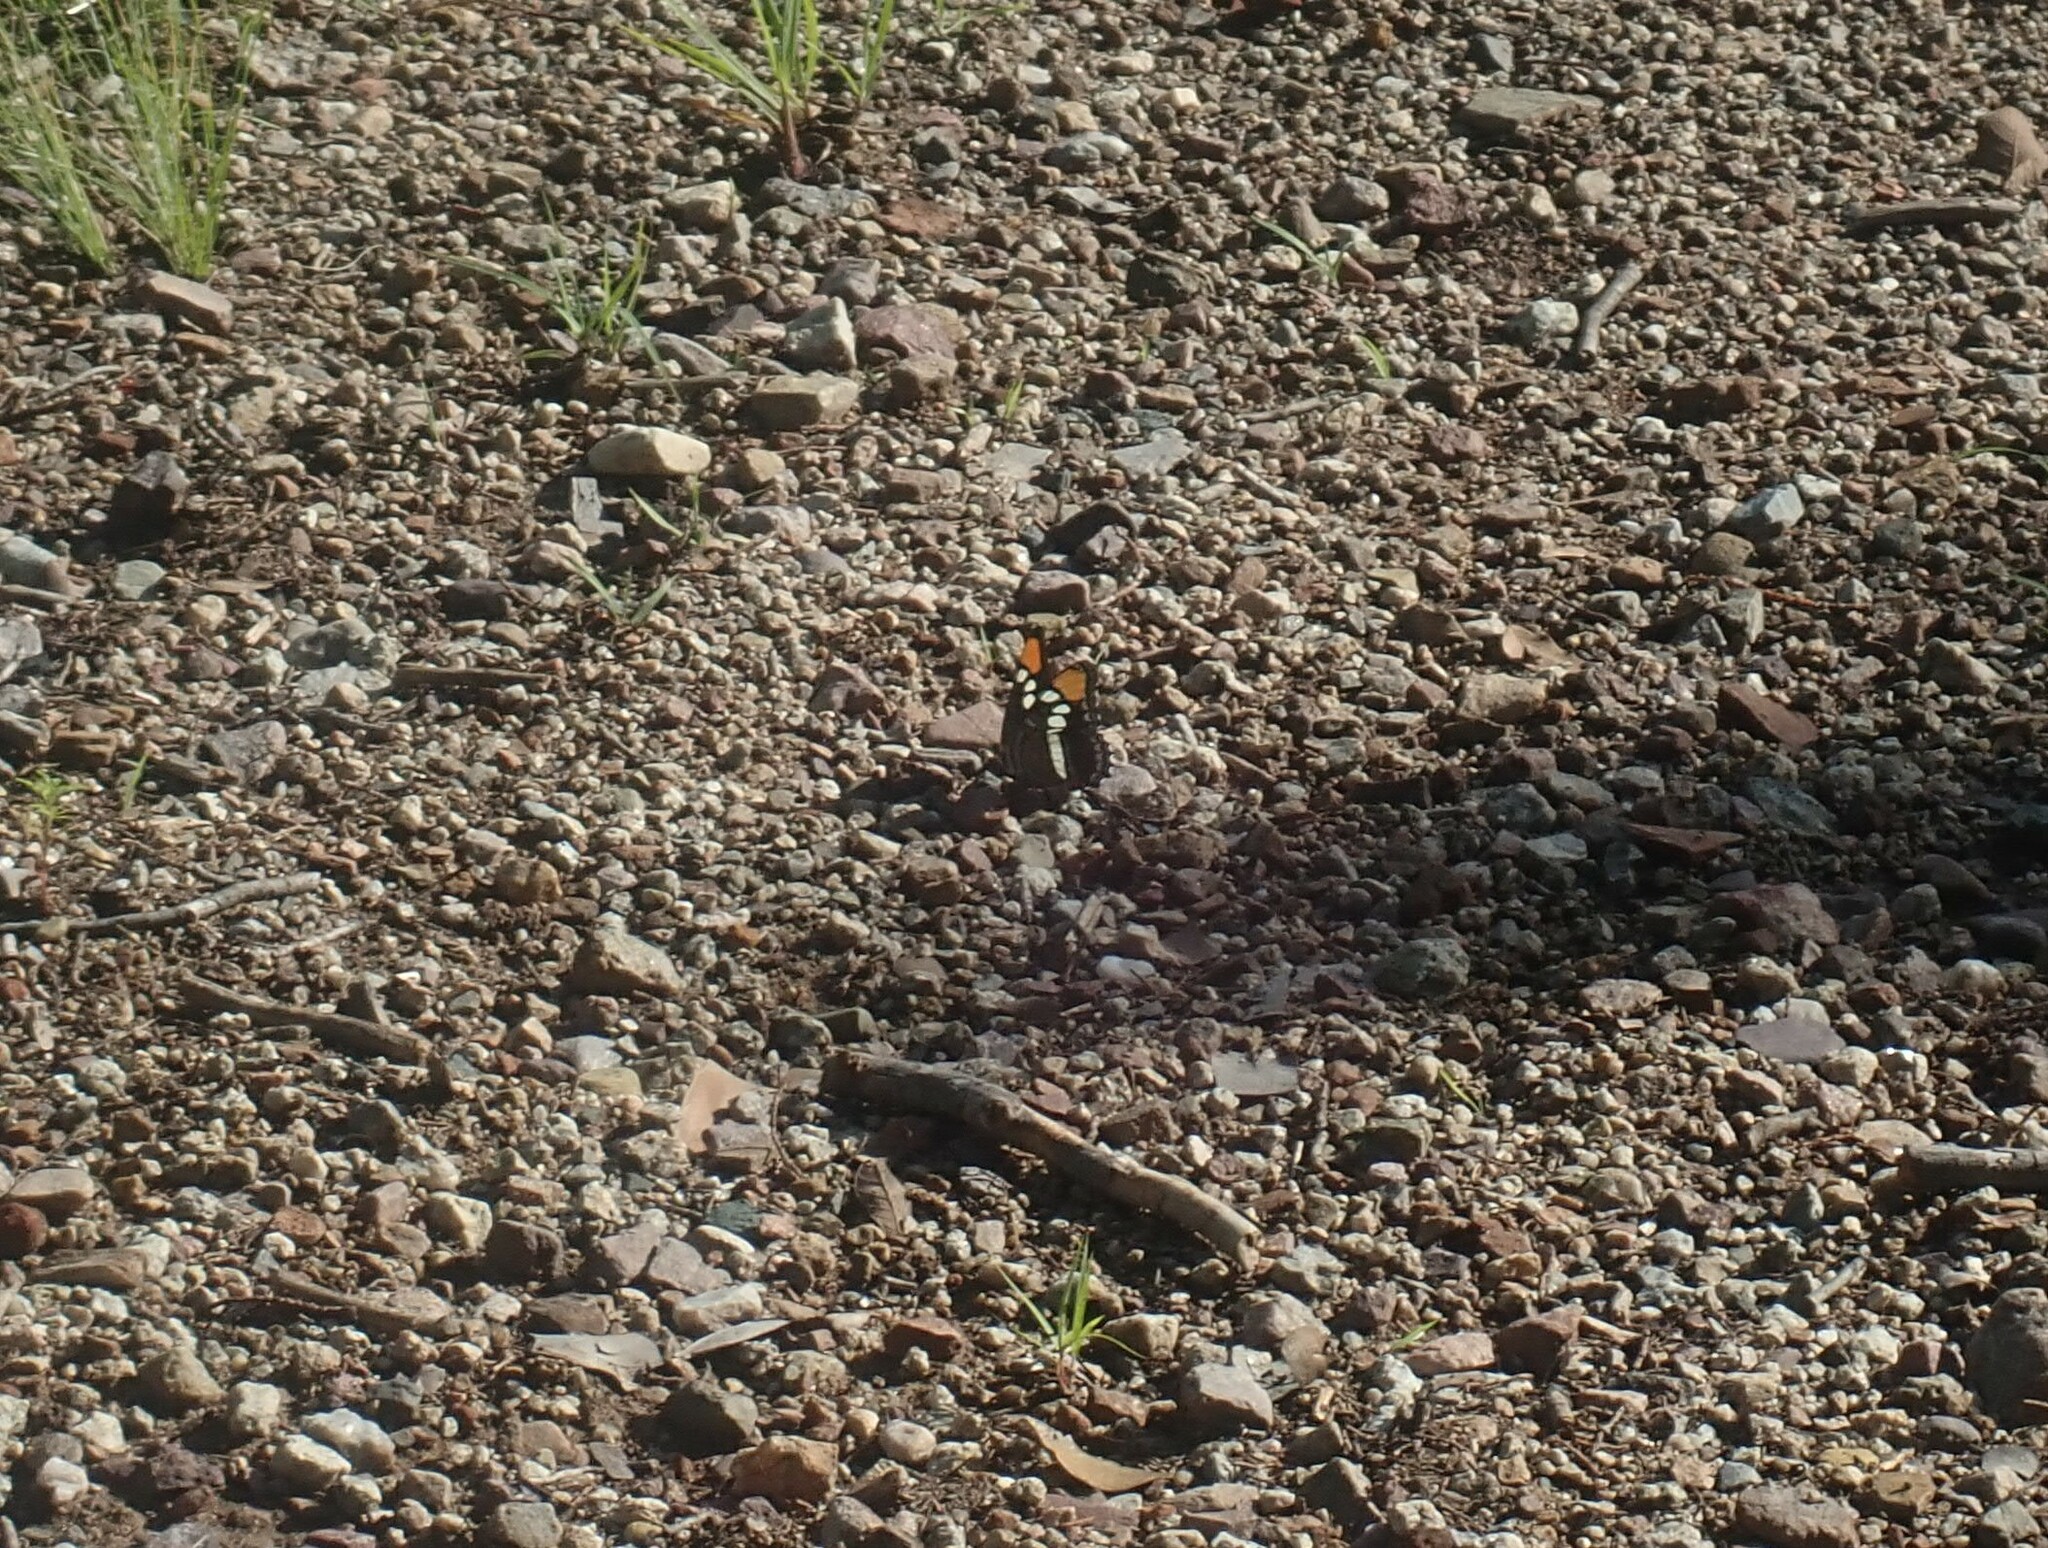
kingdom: Animalia
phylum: Arthropoda
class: Insecta
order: Lepidoptera
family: Nymphalidae
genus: Limenitis
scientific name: Limenitis bredowii
